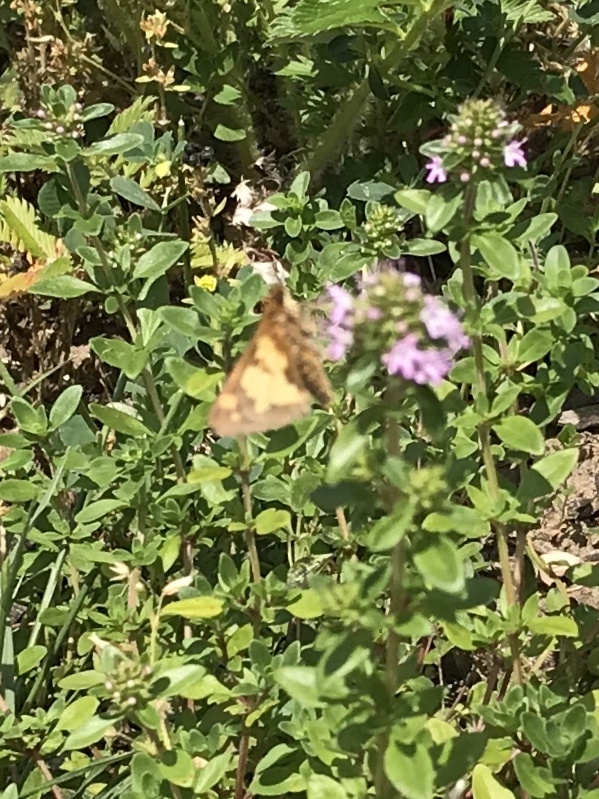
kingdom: Animalia
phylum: Arthropoda
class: Insecta
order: Lepidoptera
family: Hesperiidae
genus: Polites
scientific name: Polites coras
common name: Peck's skipper
